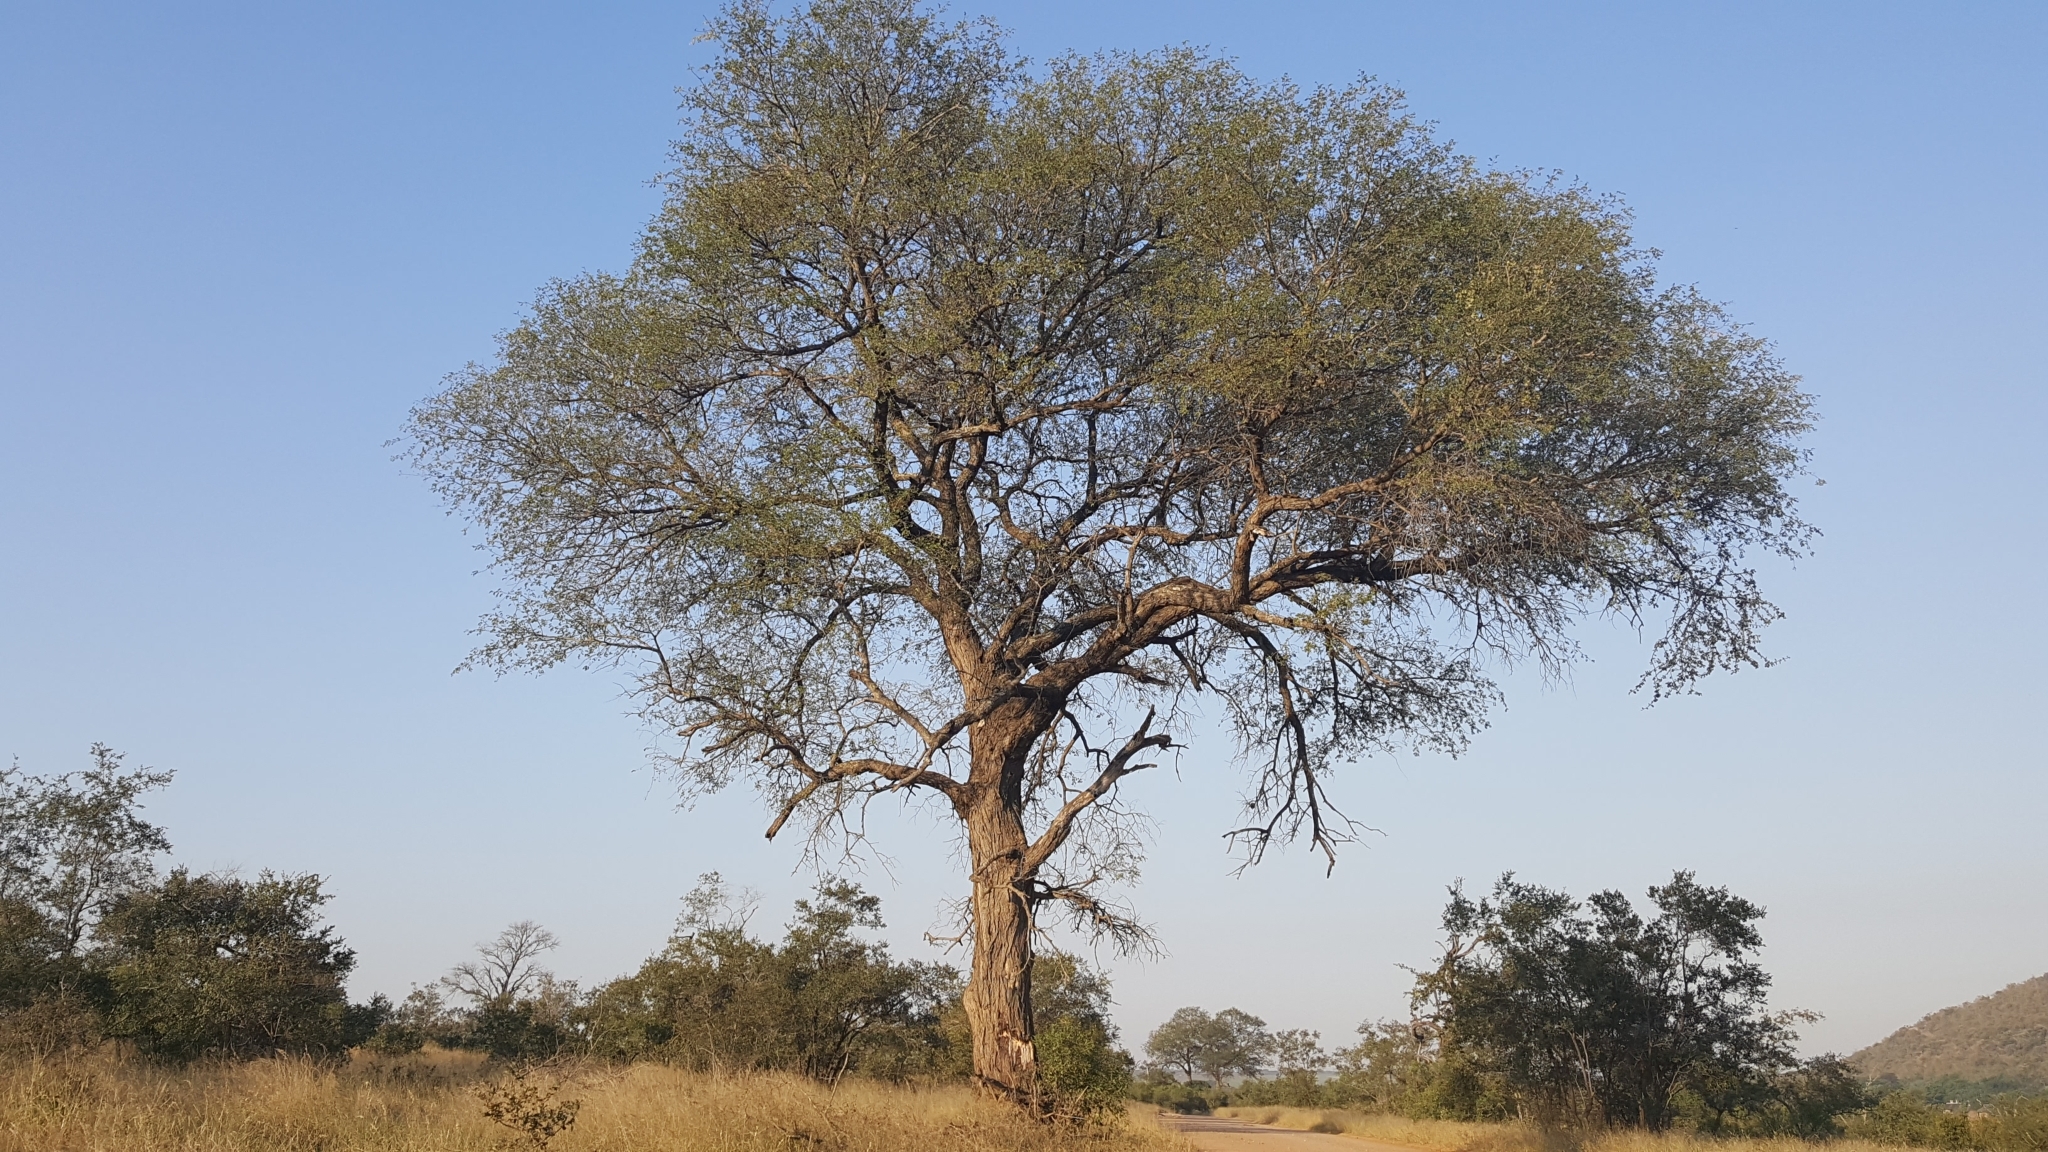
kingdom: Plantae
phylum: Tracheophyta
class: Magnoliopsida
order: Fabales
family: Fabaceae
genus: Senegalia
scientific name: Senegalia nigrescens
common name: Knobthorn
